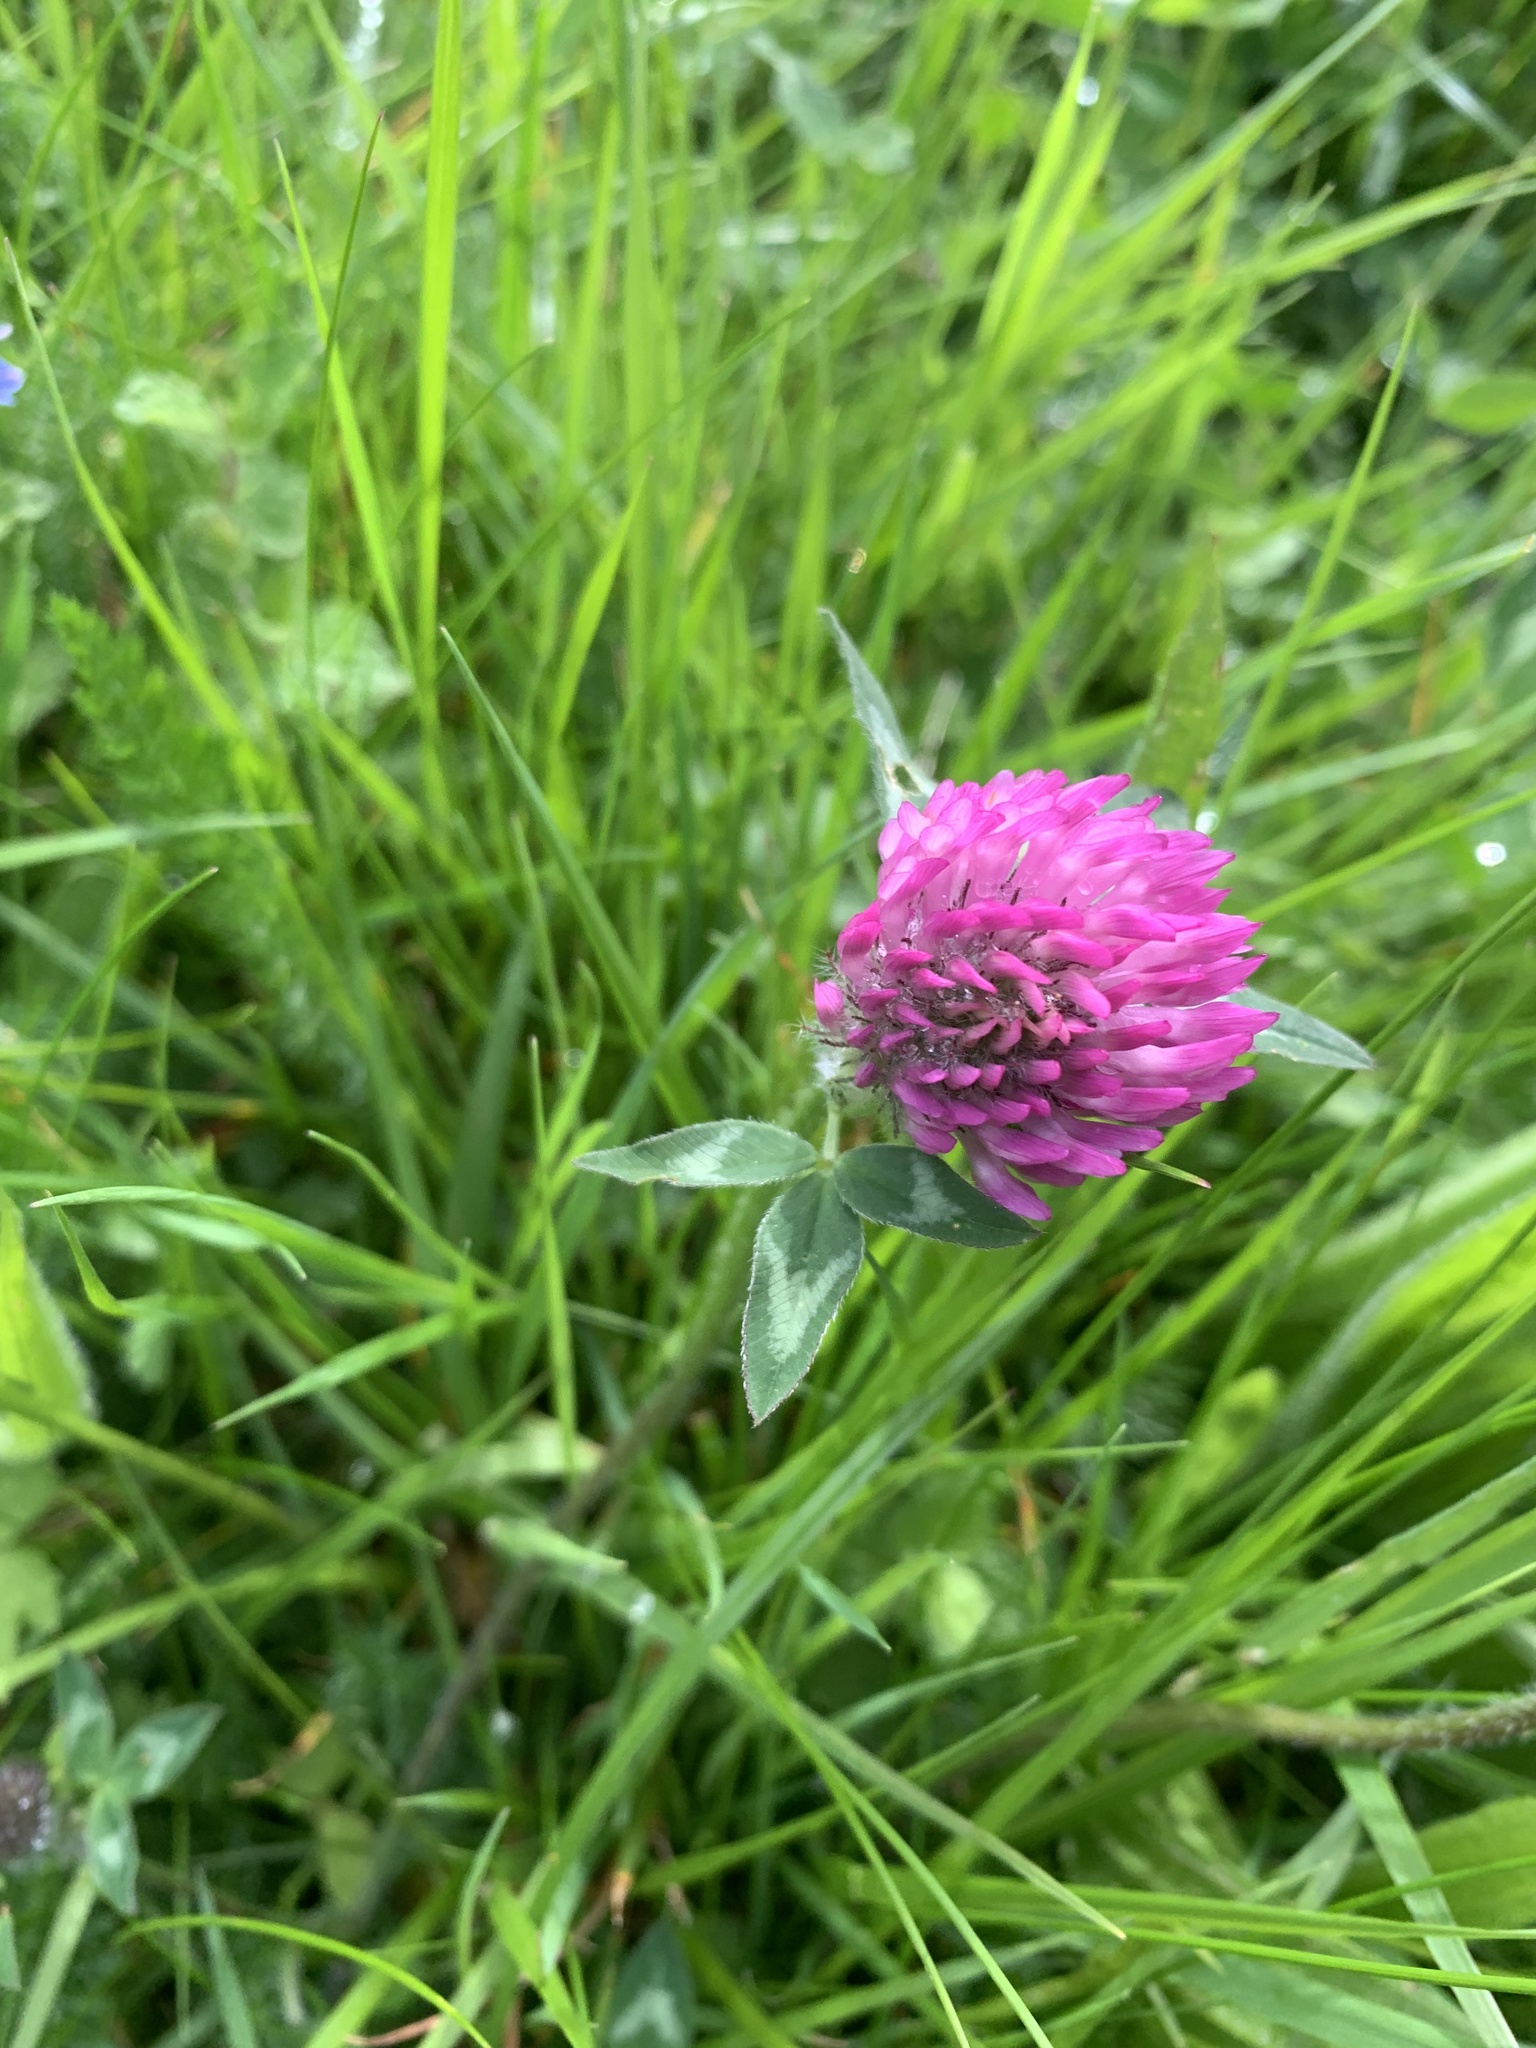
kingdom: Plantae
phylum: Tracheophyta
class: Magnoliopsida
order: Fabales
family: Fabaceae
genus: Trifolium
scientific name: Trifolium pratense
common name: Red clover
